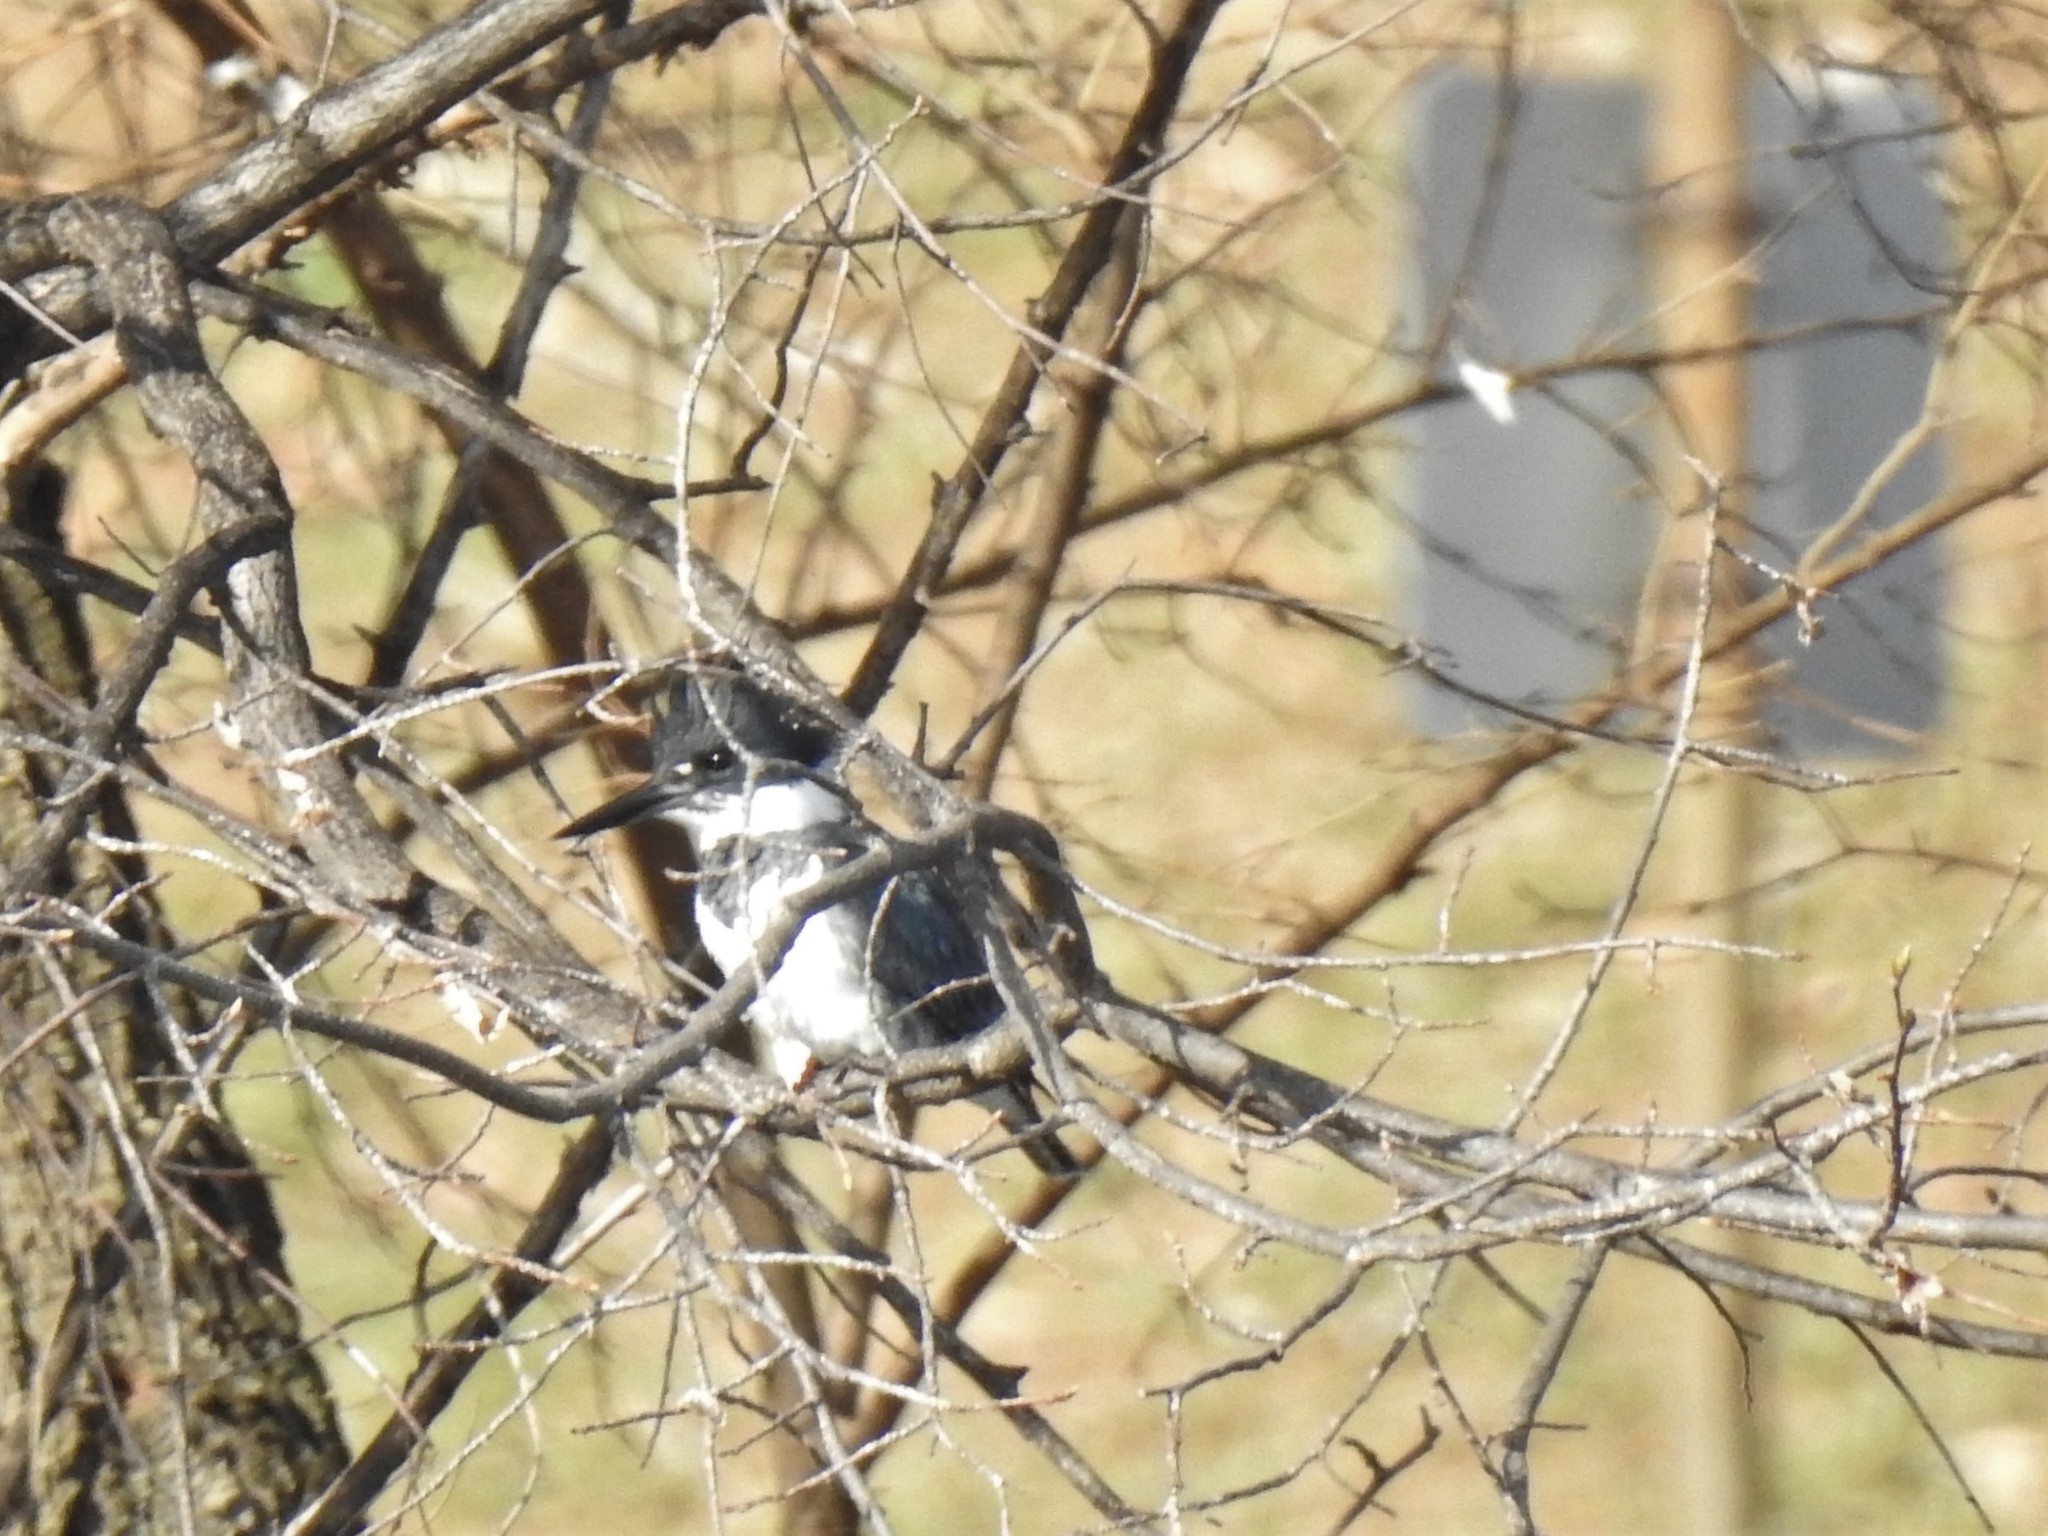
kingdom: Animalia
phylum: Chordata
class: Aves
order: Coraciiformes
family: Alcedinidae
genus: Megaceryle
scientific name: Megaceryle alcyon
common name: Belted kingfisher
